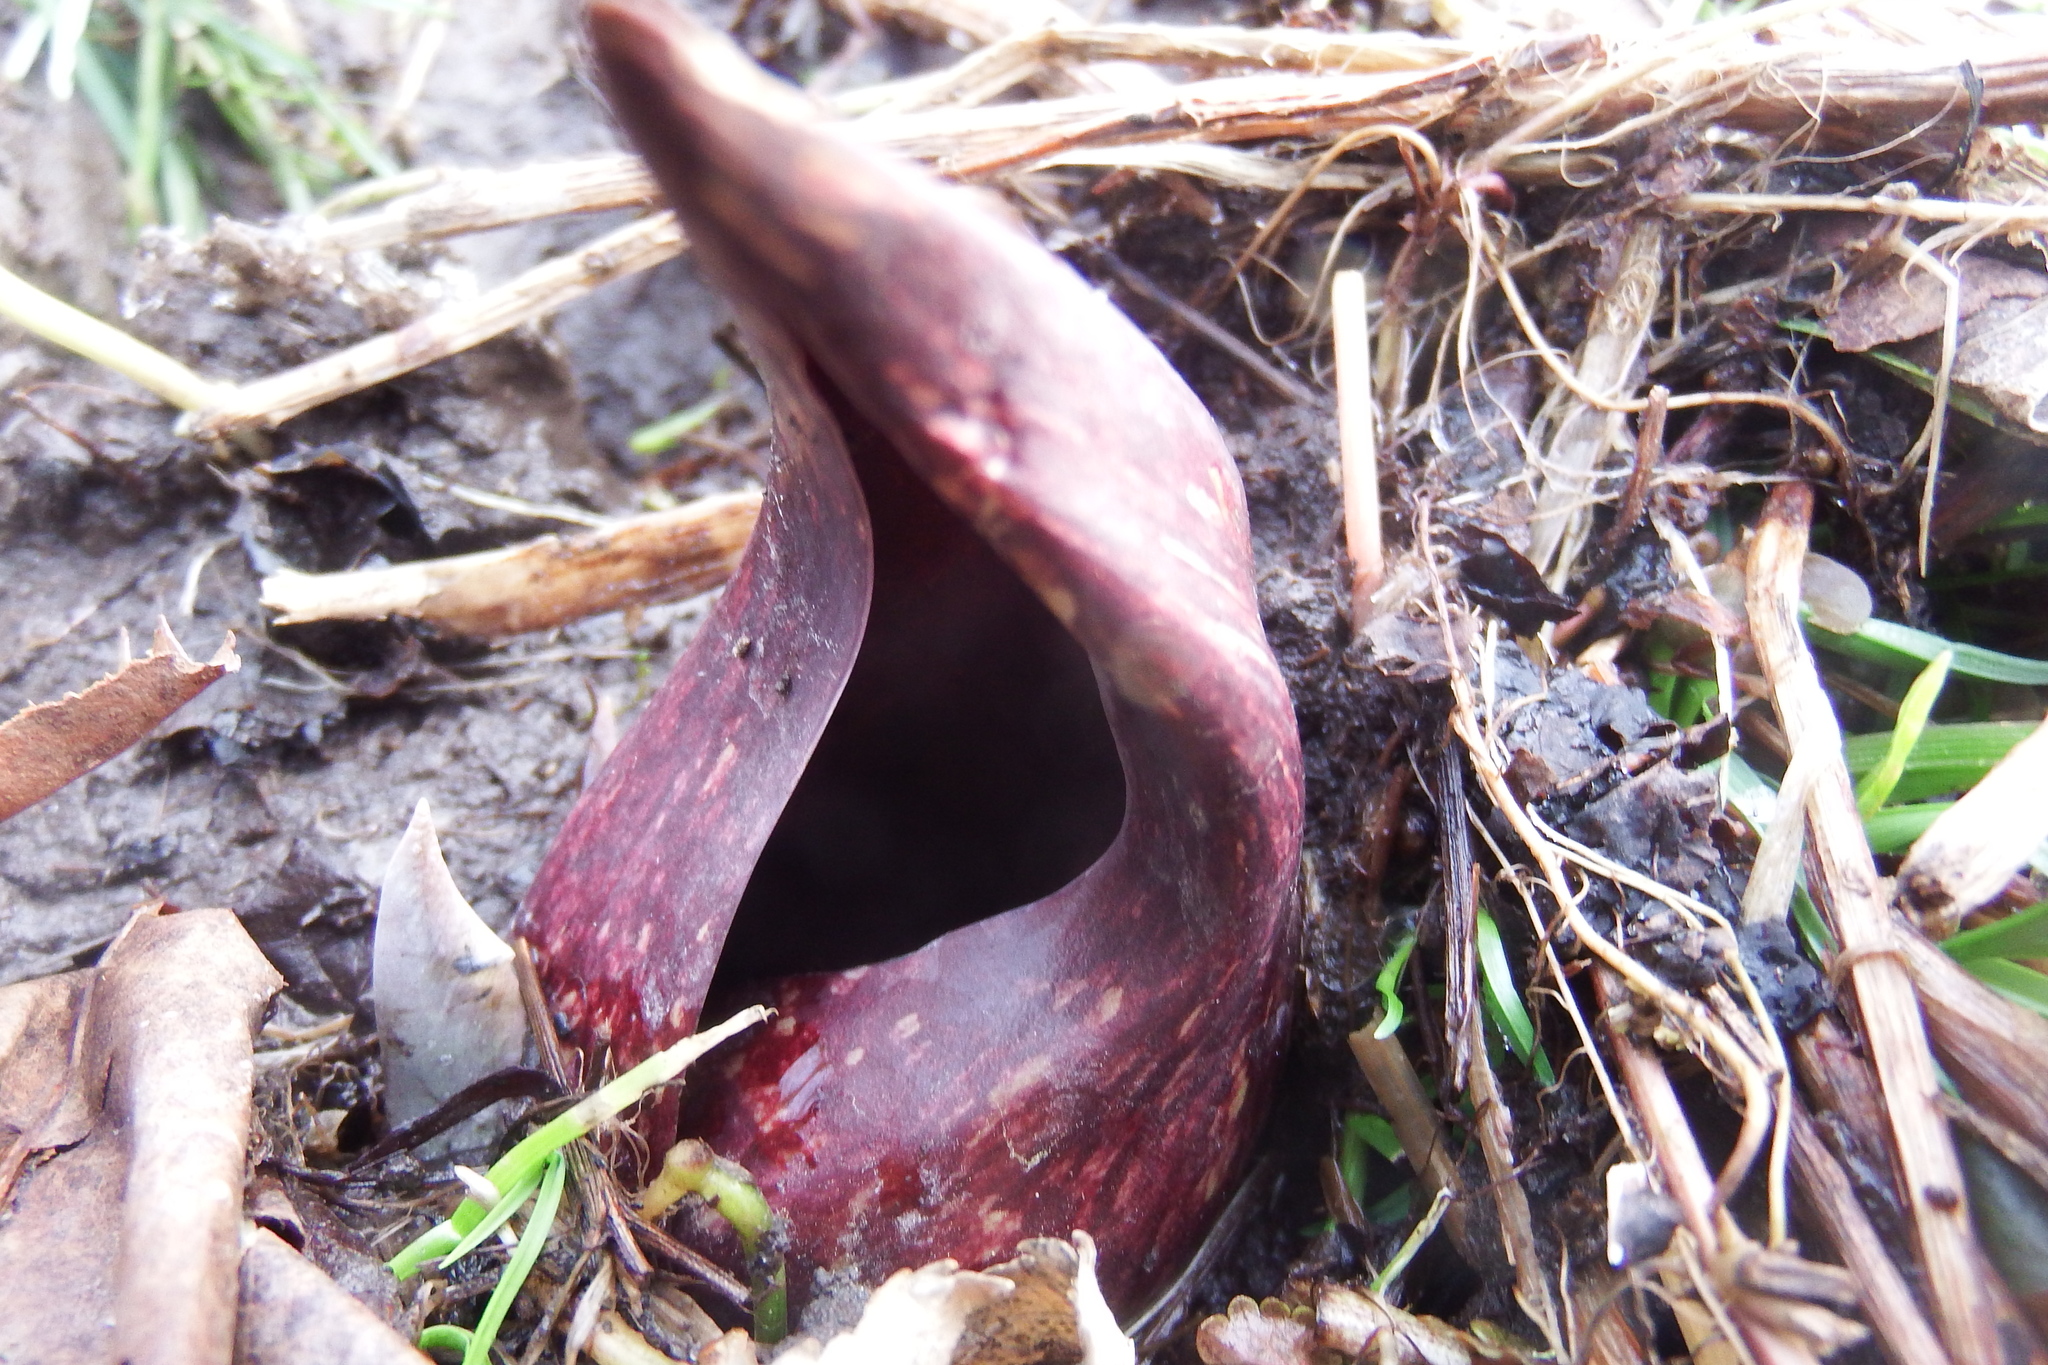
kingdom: Plantae
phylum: Tracheophyta
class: Liliopsida
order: Alismatales
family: Araceae
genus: Symplocarpus
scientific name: Symplocarpus foetidus
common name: Eastern skunk cabbage
